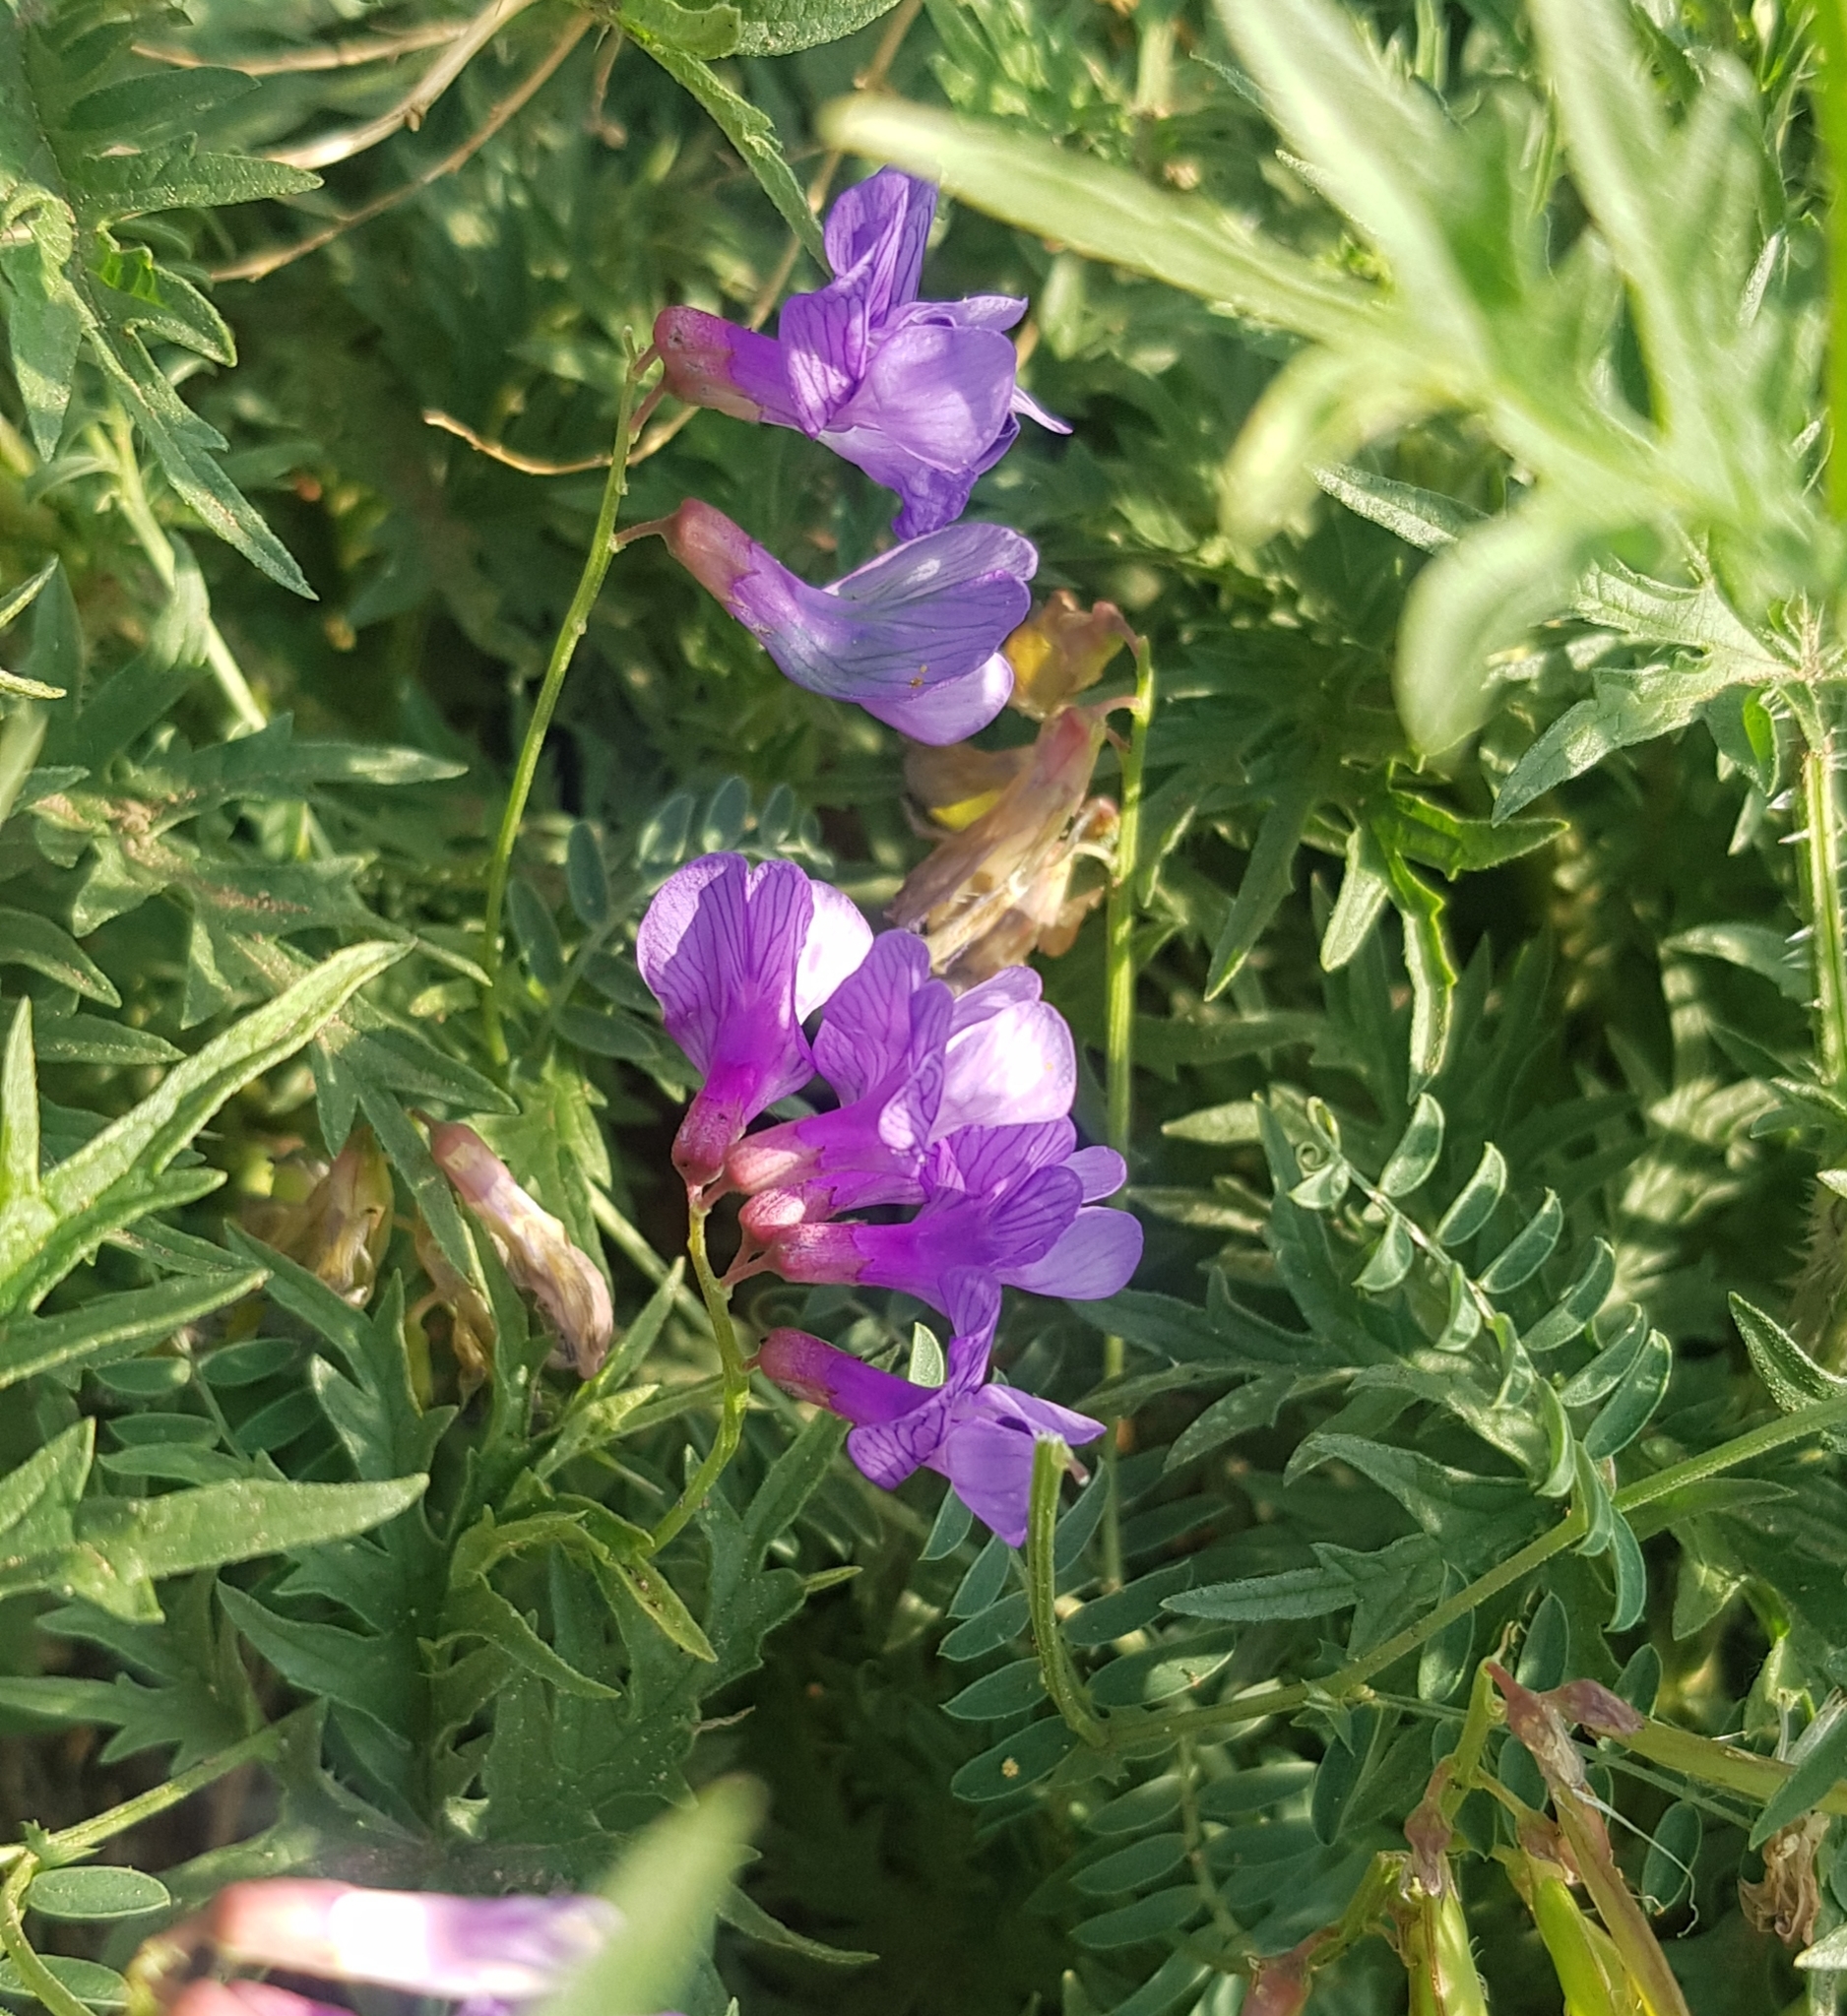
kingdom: Plantae
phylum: Tracheophyta
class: Magnoliopsida
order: Fabales
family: Fabaceae
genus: Vicia
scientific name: Vicia cracca
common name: Bird vetch
